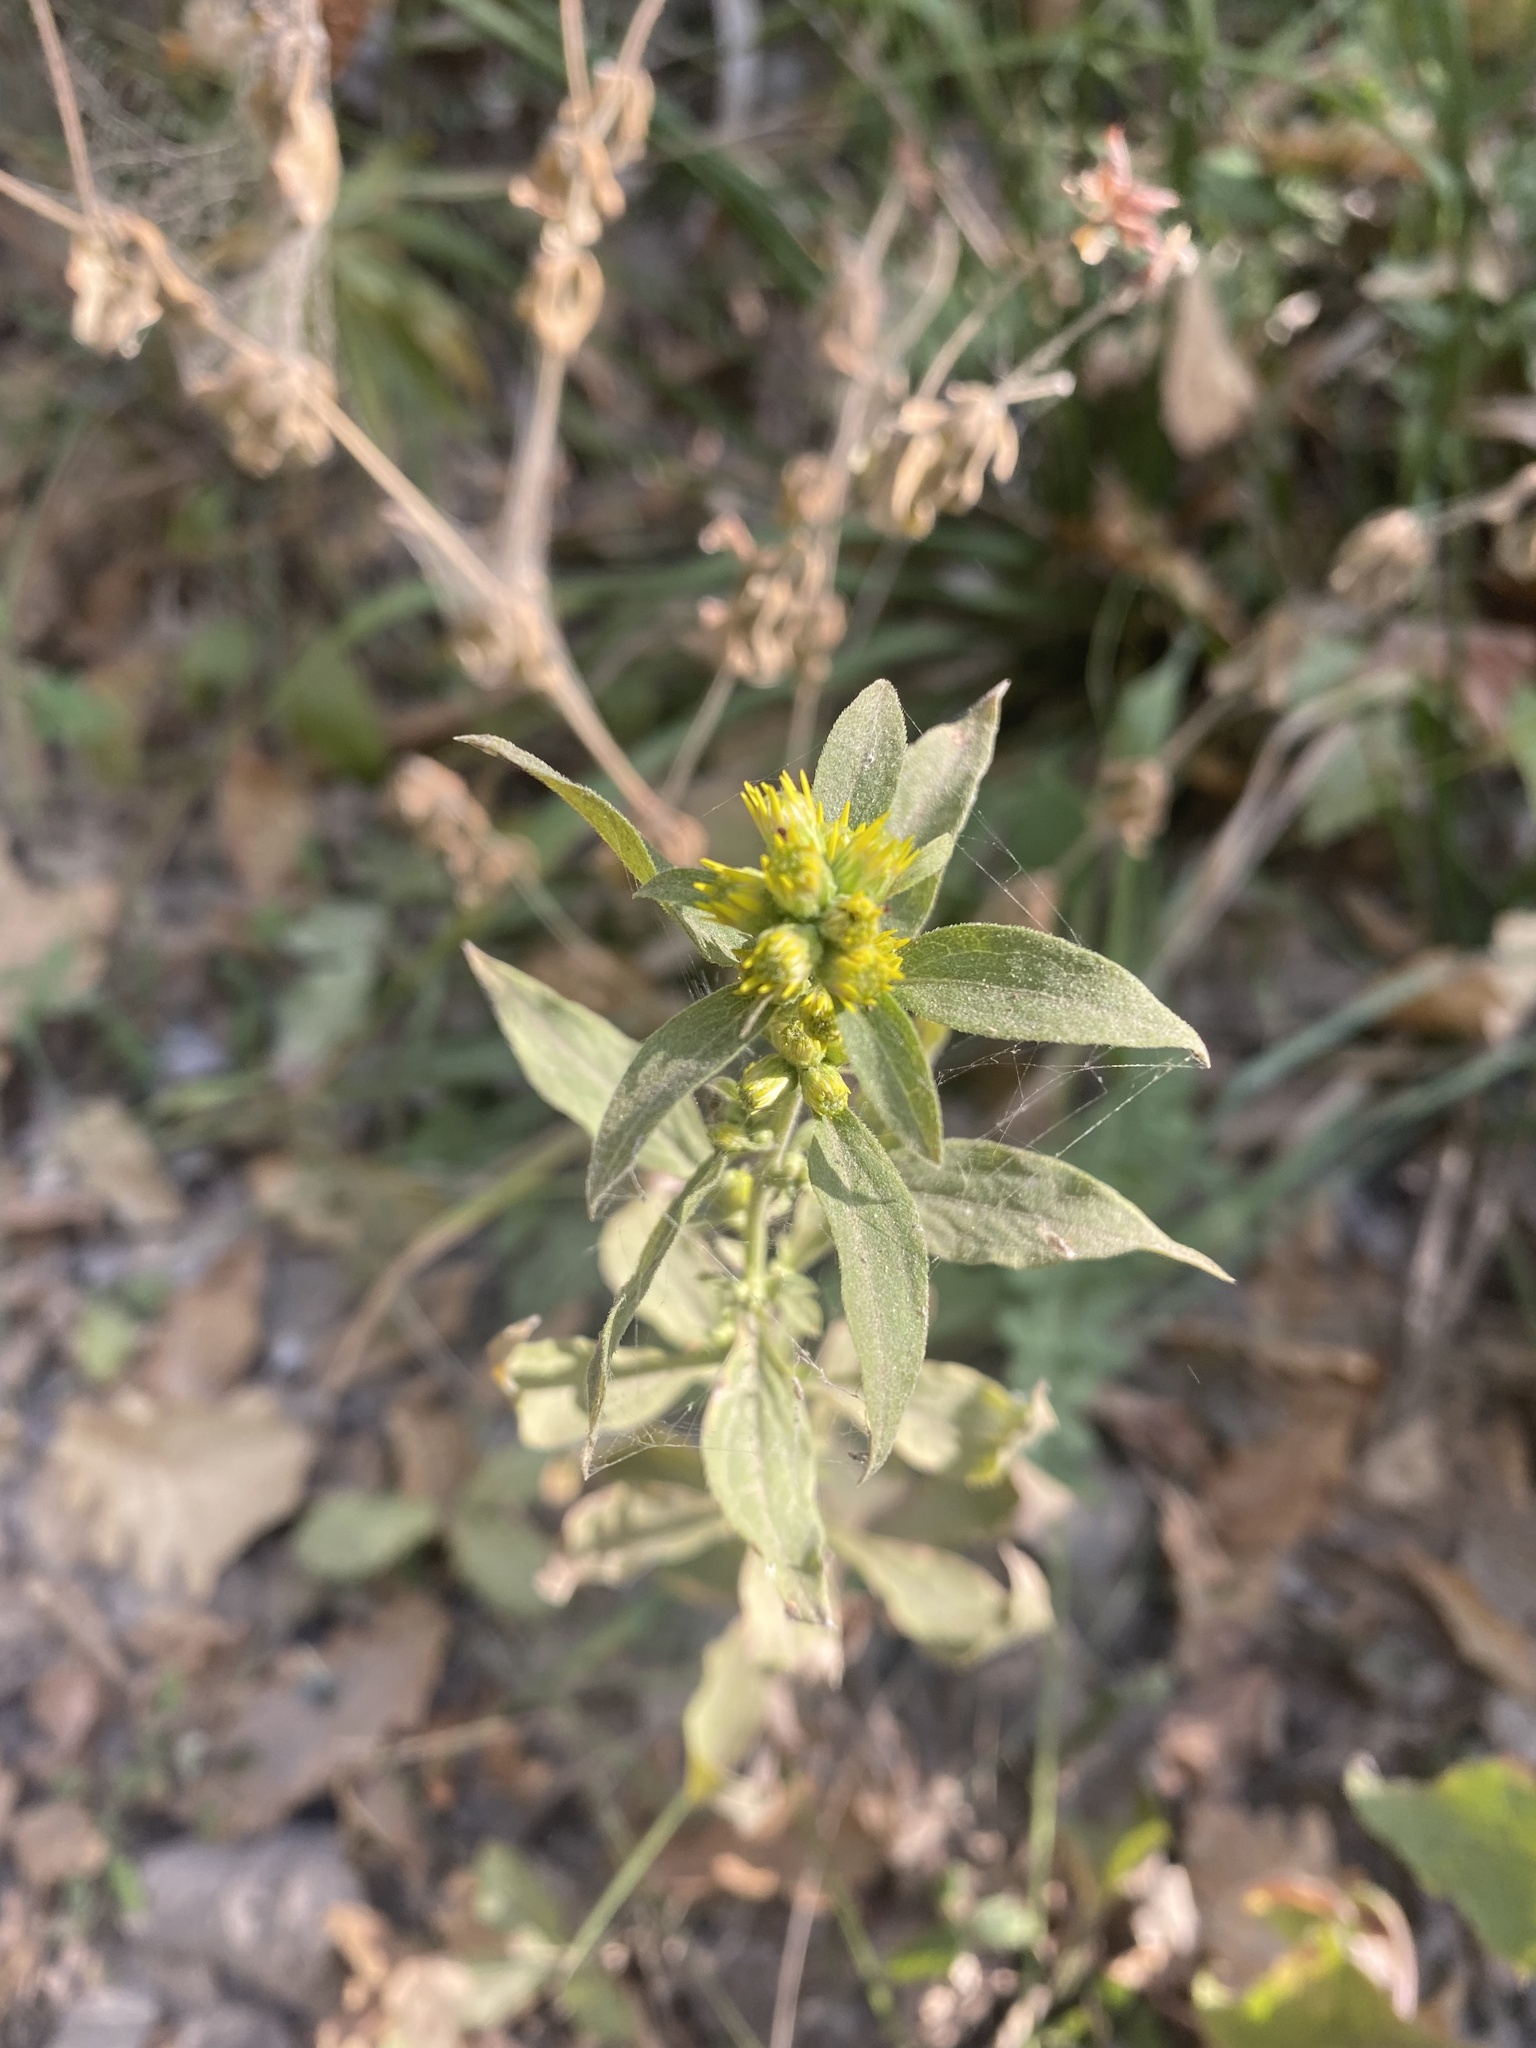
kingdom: Plantae
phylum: Tracheophyta
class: Magnoliopsida
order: Asterales
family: Asteraceae
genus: Solidago
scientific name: Solidago virgaurea
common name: Goldenrod
